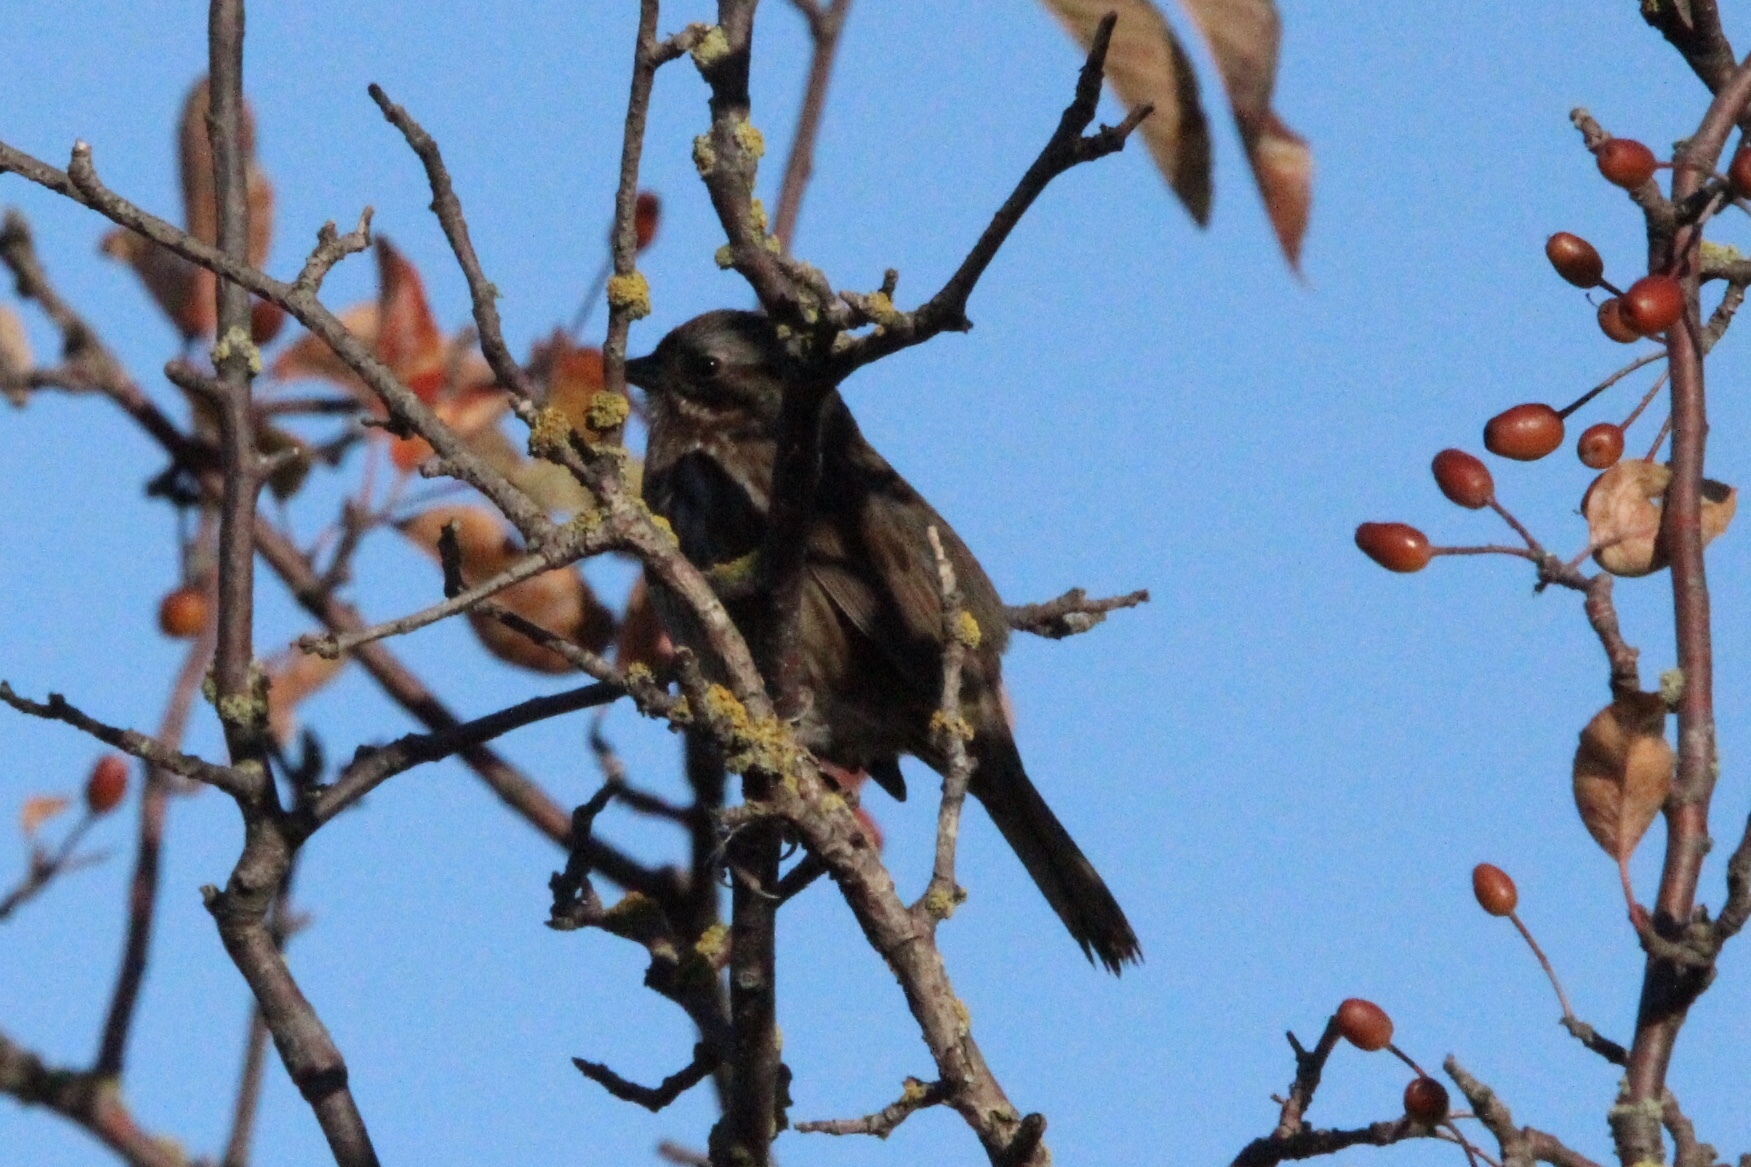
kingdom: Animalia
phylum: Chordata
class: Aves
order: Passeriformes
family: Passerellidae
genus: Melospiza
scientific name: Melospiza melodia
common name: Song sparrow
